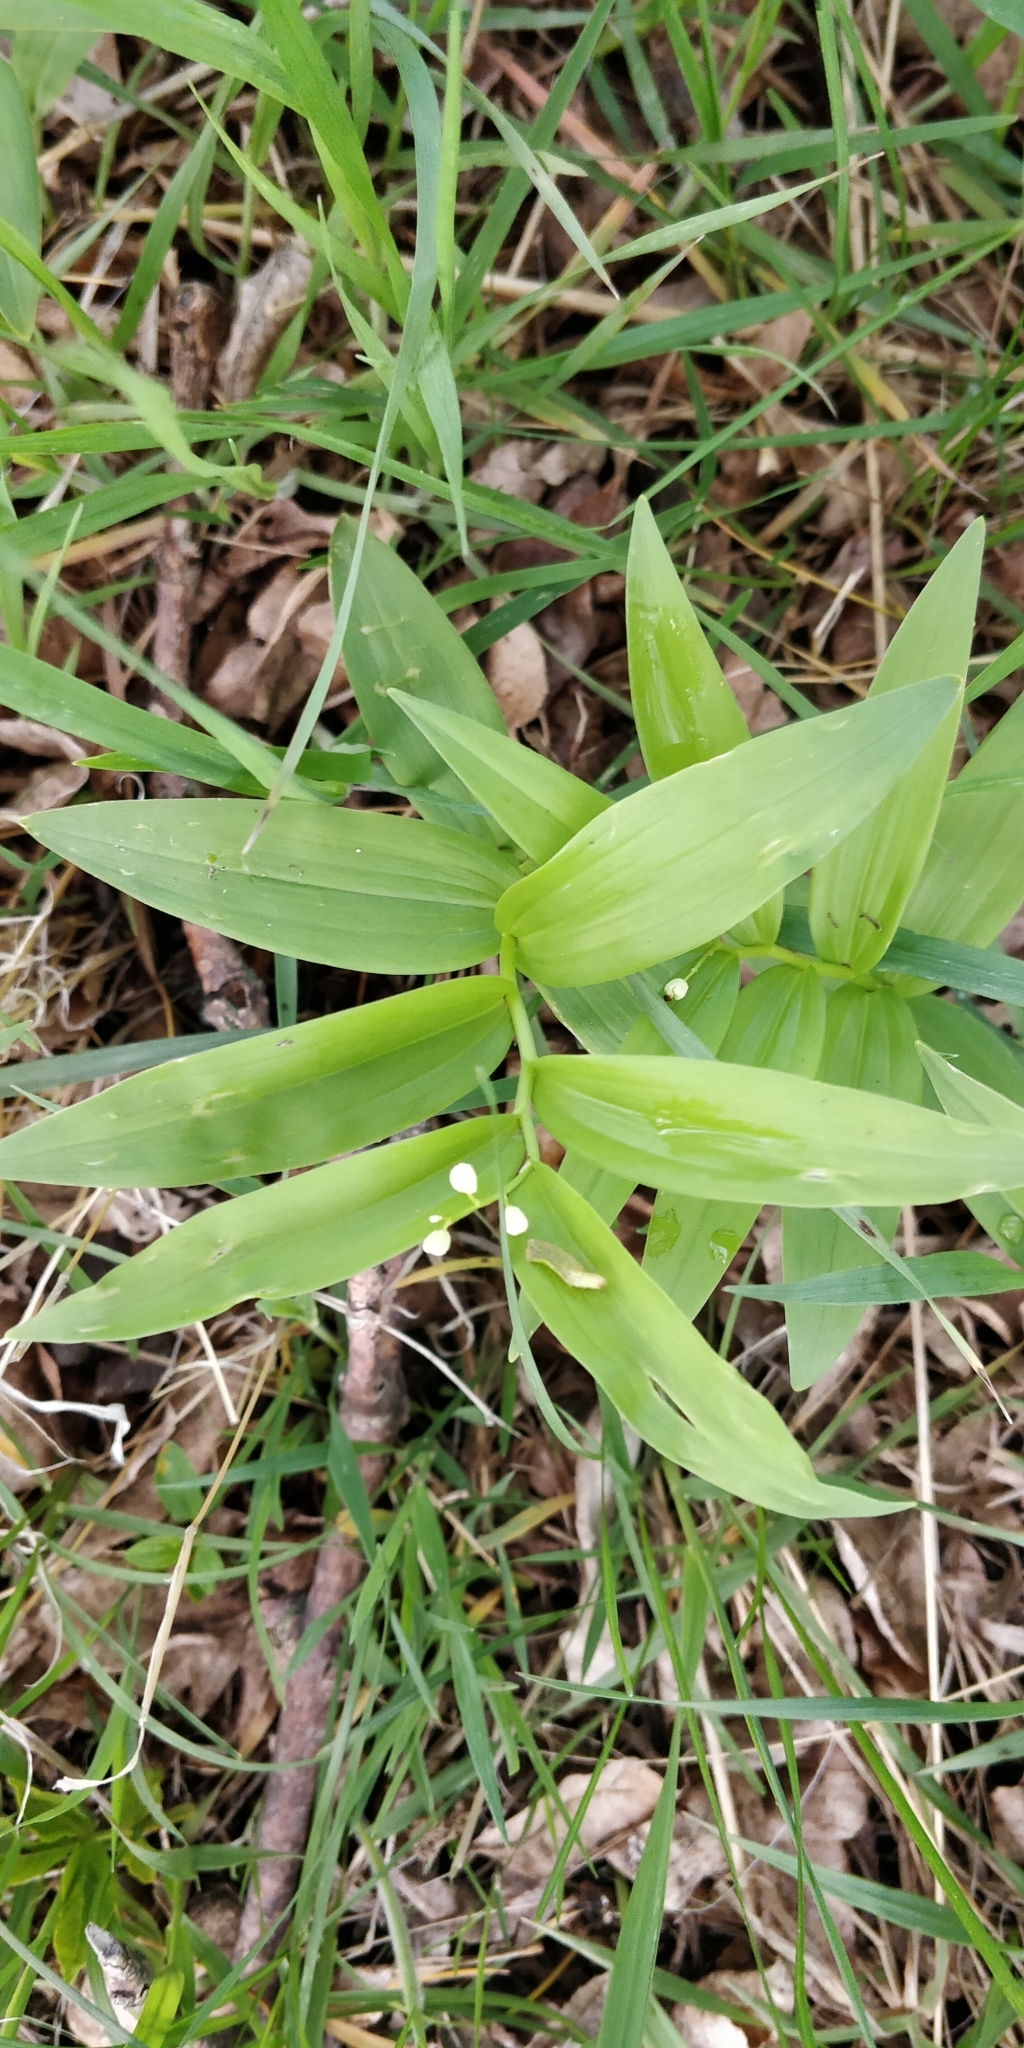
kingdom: Plantae
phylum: Tracheophyta
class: Liliopsida
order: Asparagales
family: Asparagaceae
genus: Maianthemum
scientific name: Maianthemum stellatum
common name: Little false solomon's seal
